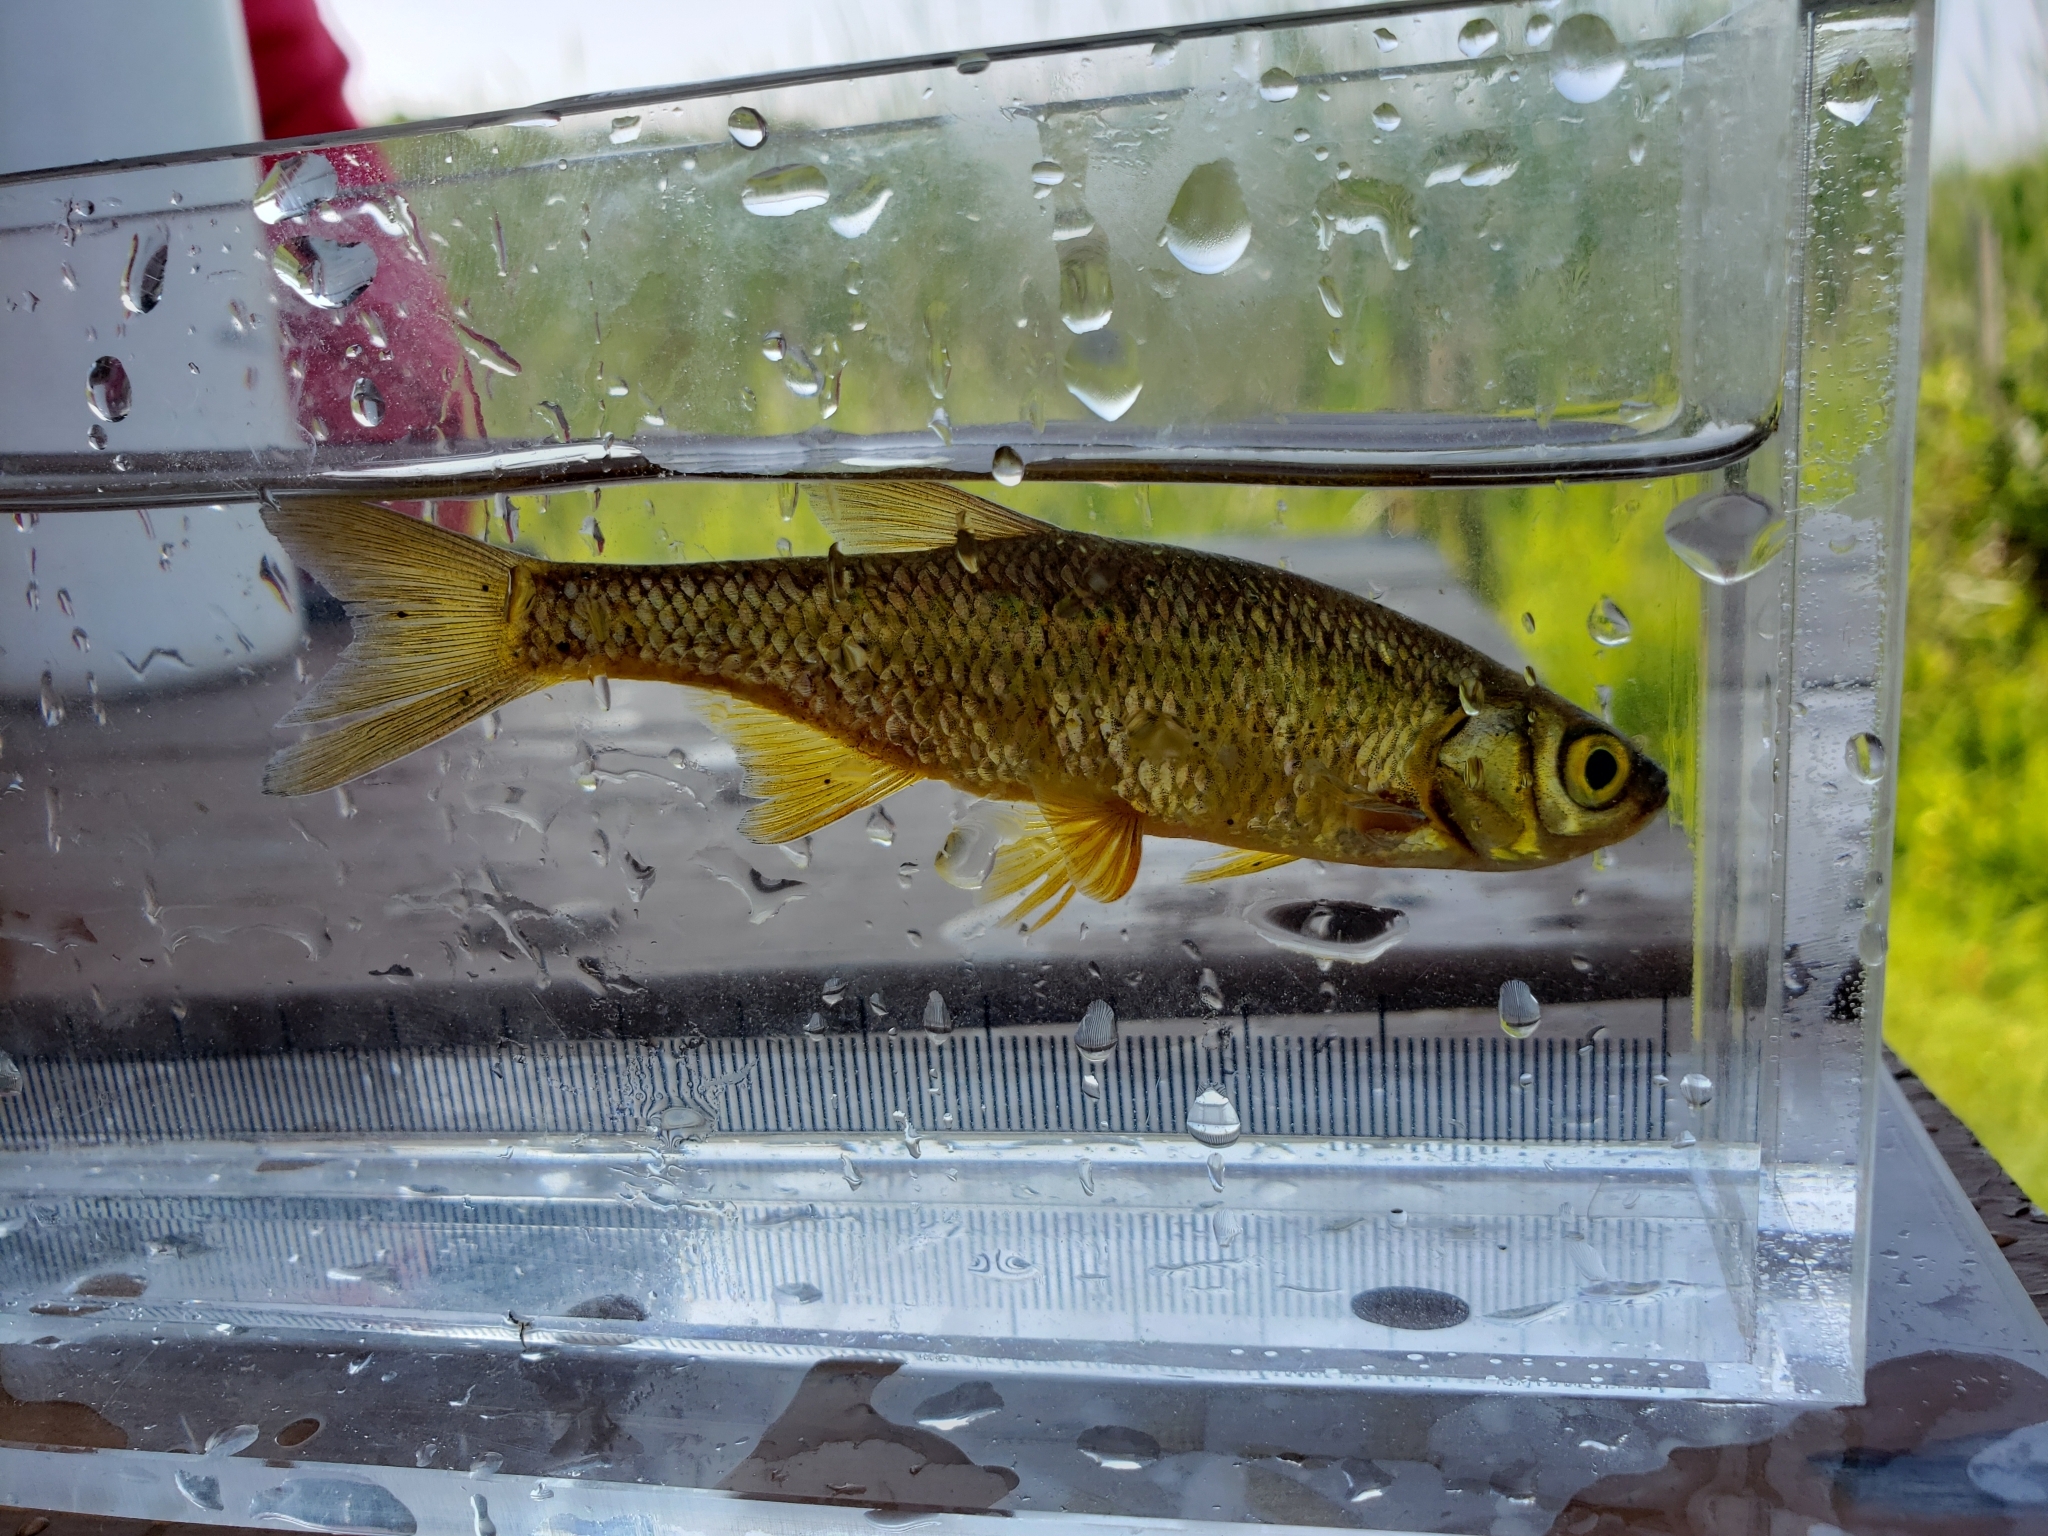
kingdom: Animalia
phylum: Chordata
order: Cypriniformes
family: Cyprinidae
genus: Notemigonus
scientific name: Notemigonus crysoleucas
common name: Golden shiner
